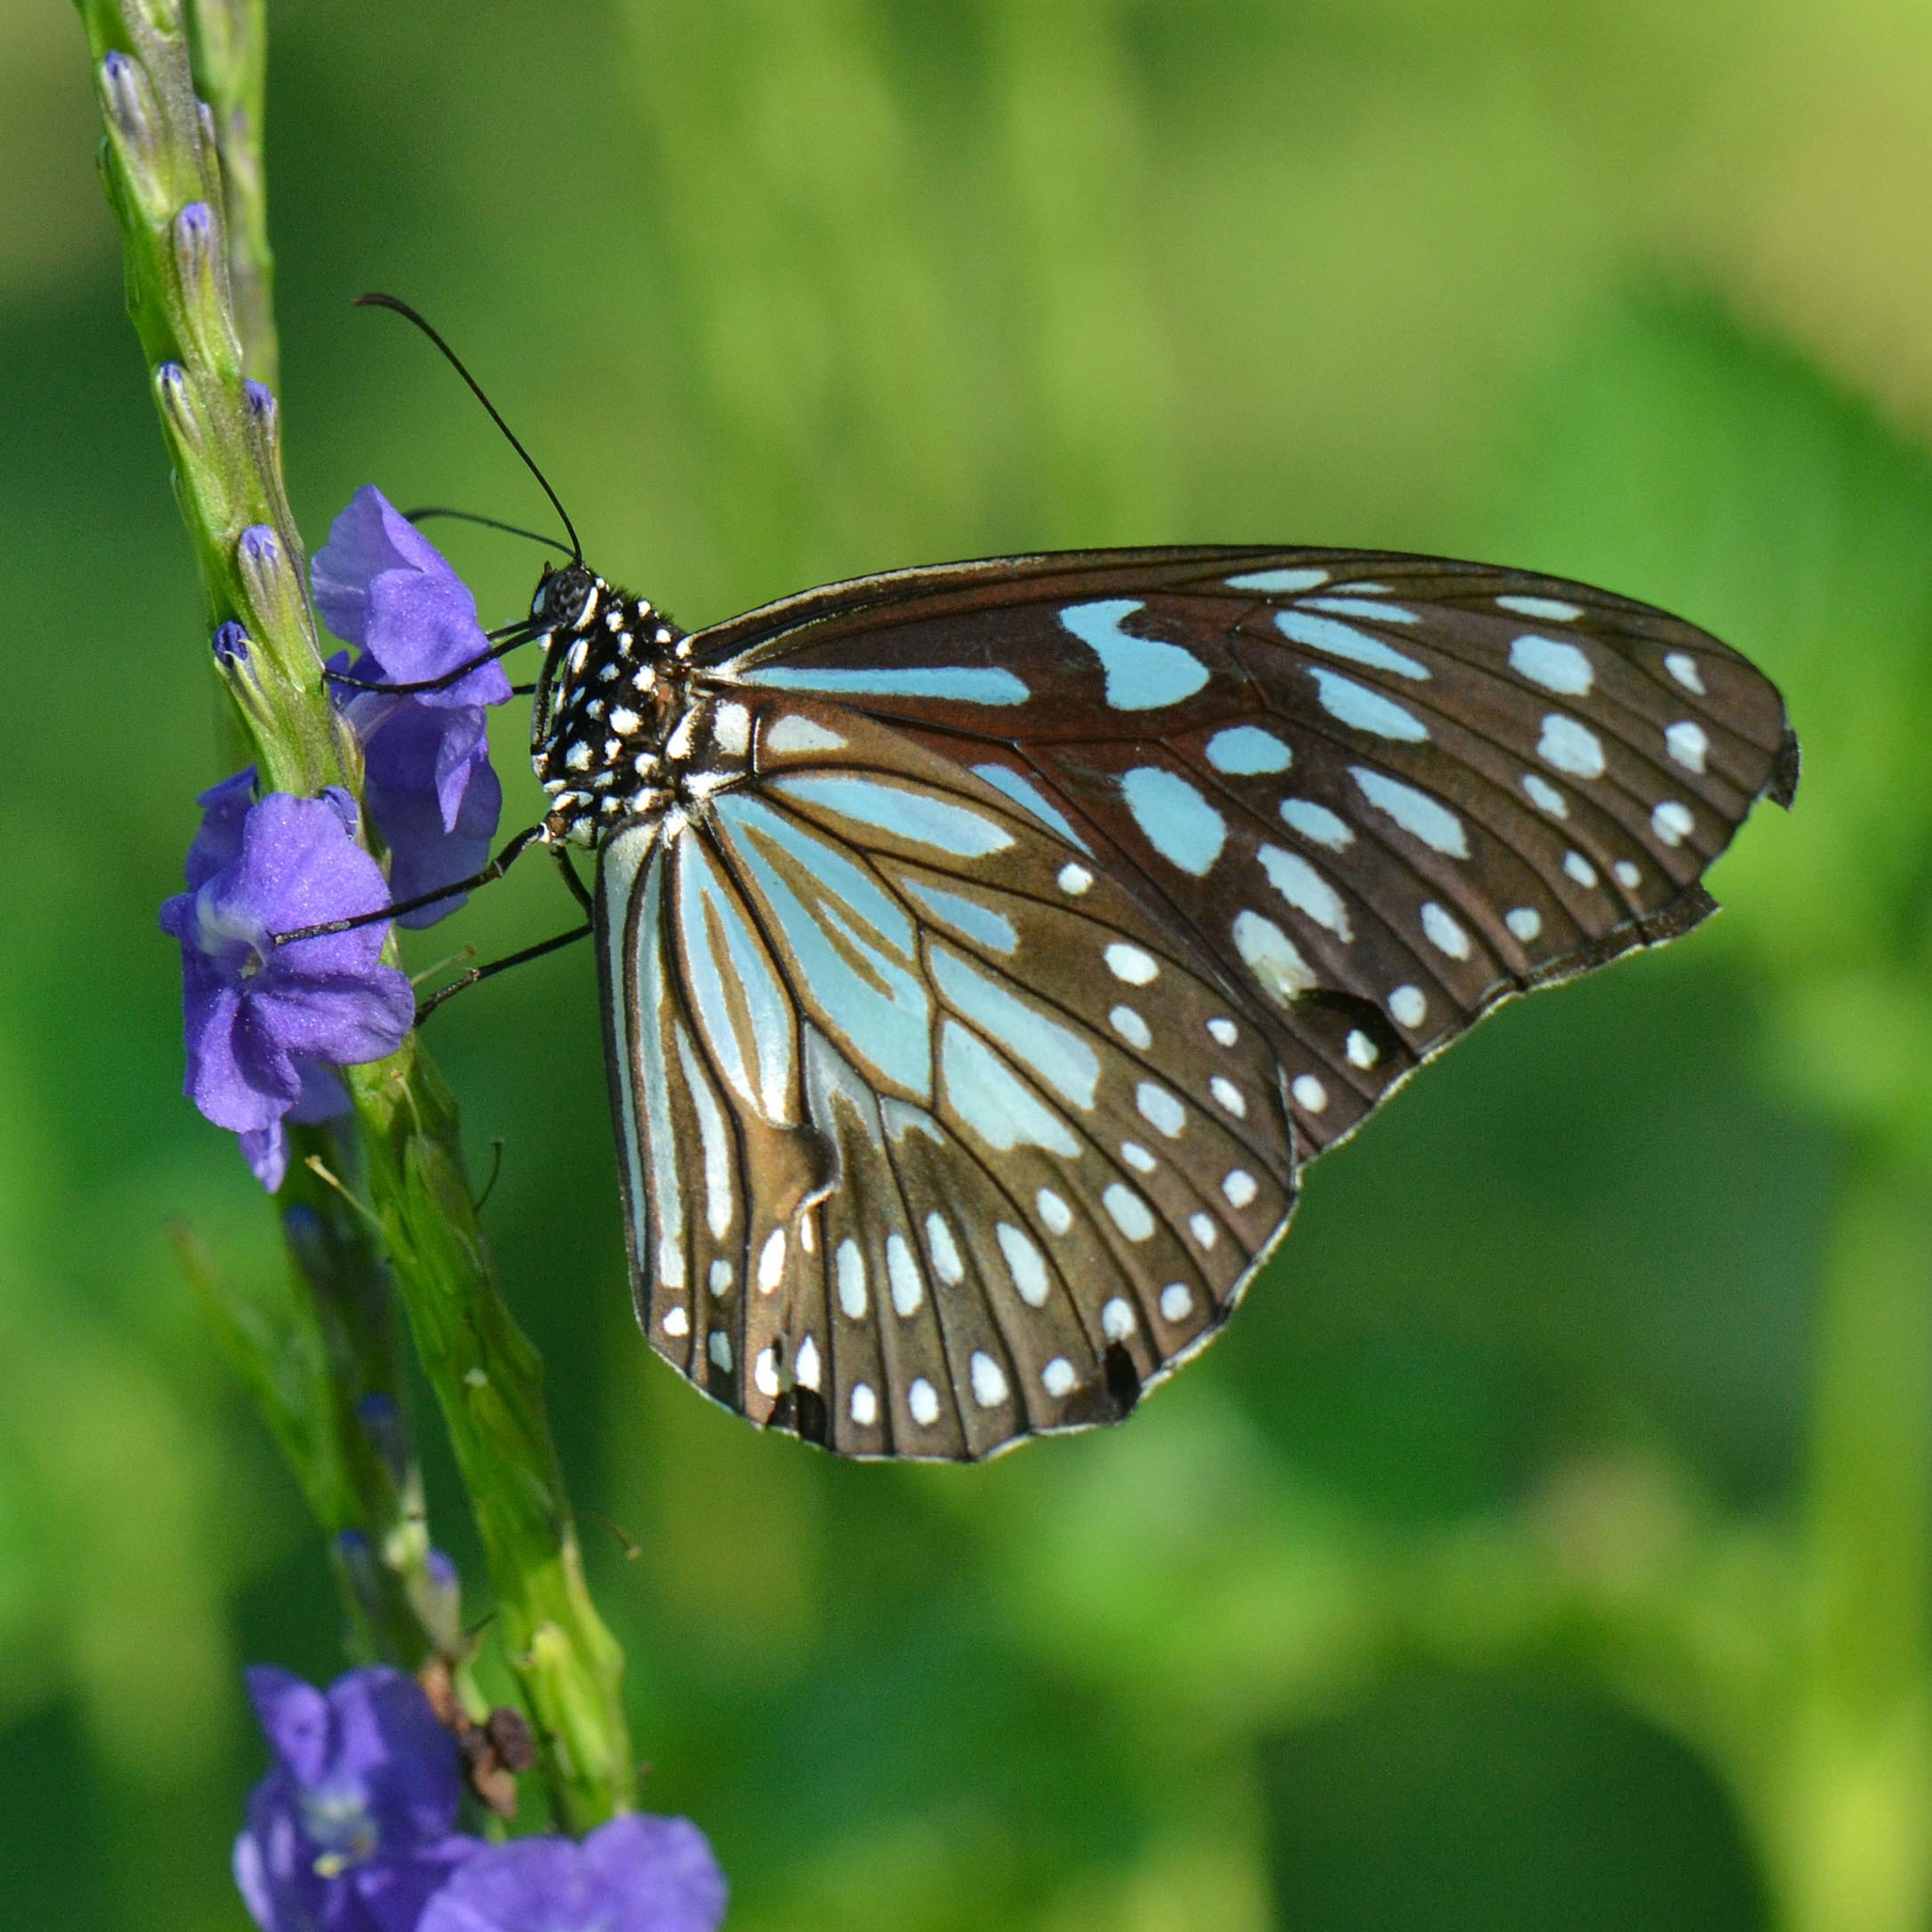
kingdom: Animalia
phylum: Arthropoda
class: Insecta
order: Lepidoptera
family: Nymphalidae
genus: Tirumala
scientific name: Tirumala limniace
